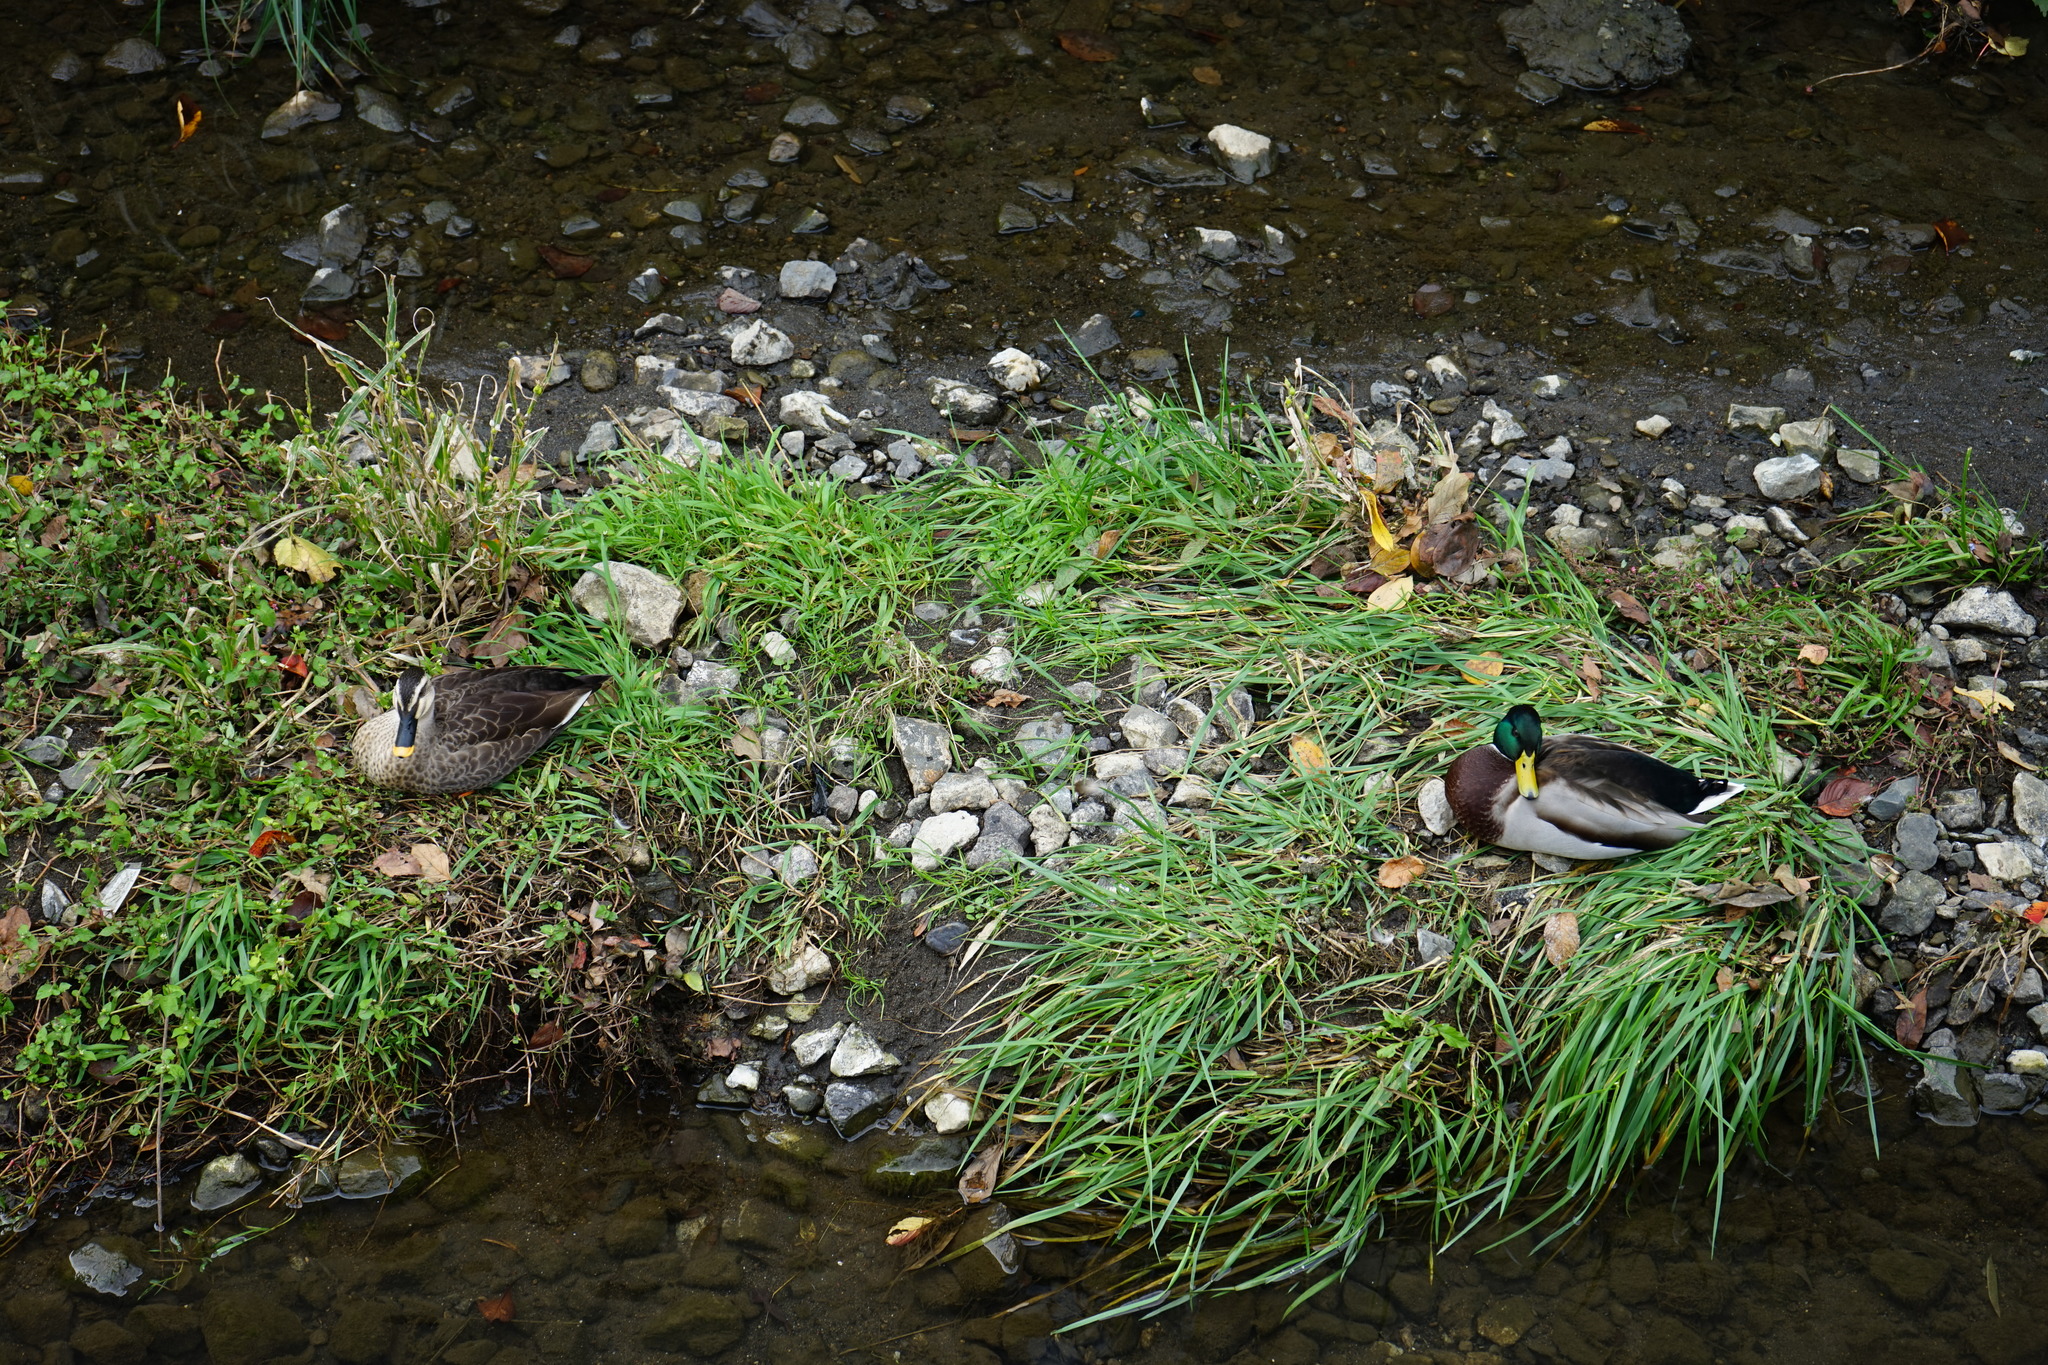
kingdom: Animalia
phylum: Chordata
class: Aves
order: Anseriformes
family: Anatidae
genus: Anas
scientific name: Anas platyrhynchos
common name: Mallard
